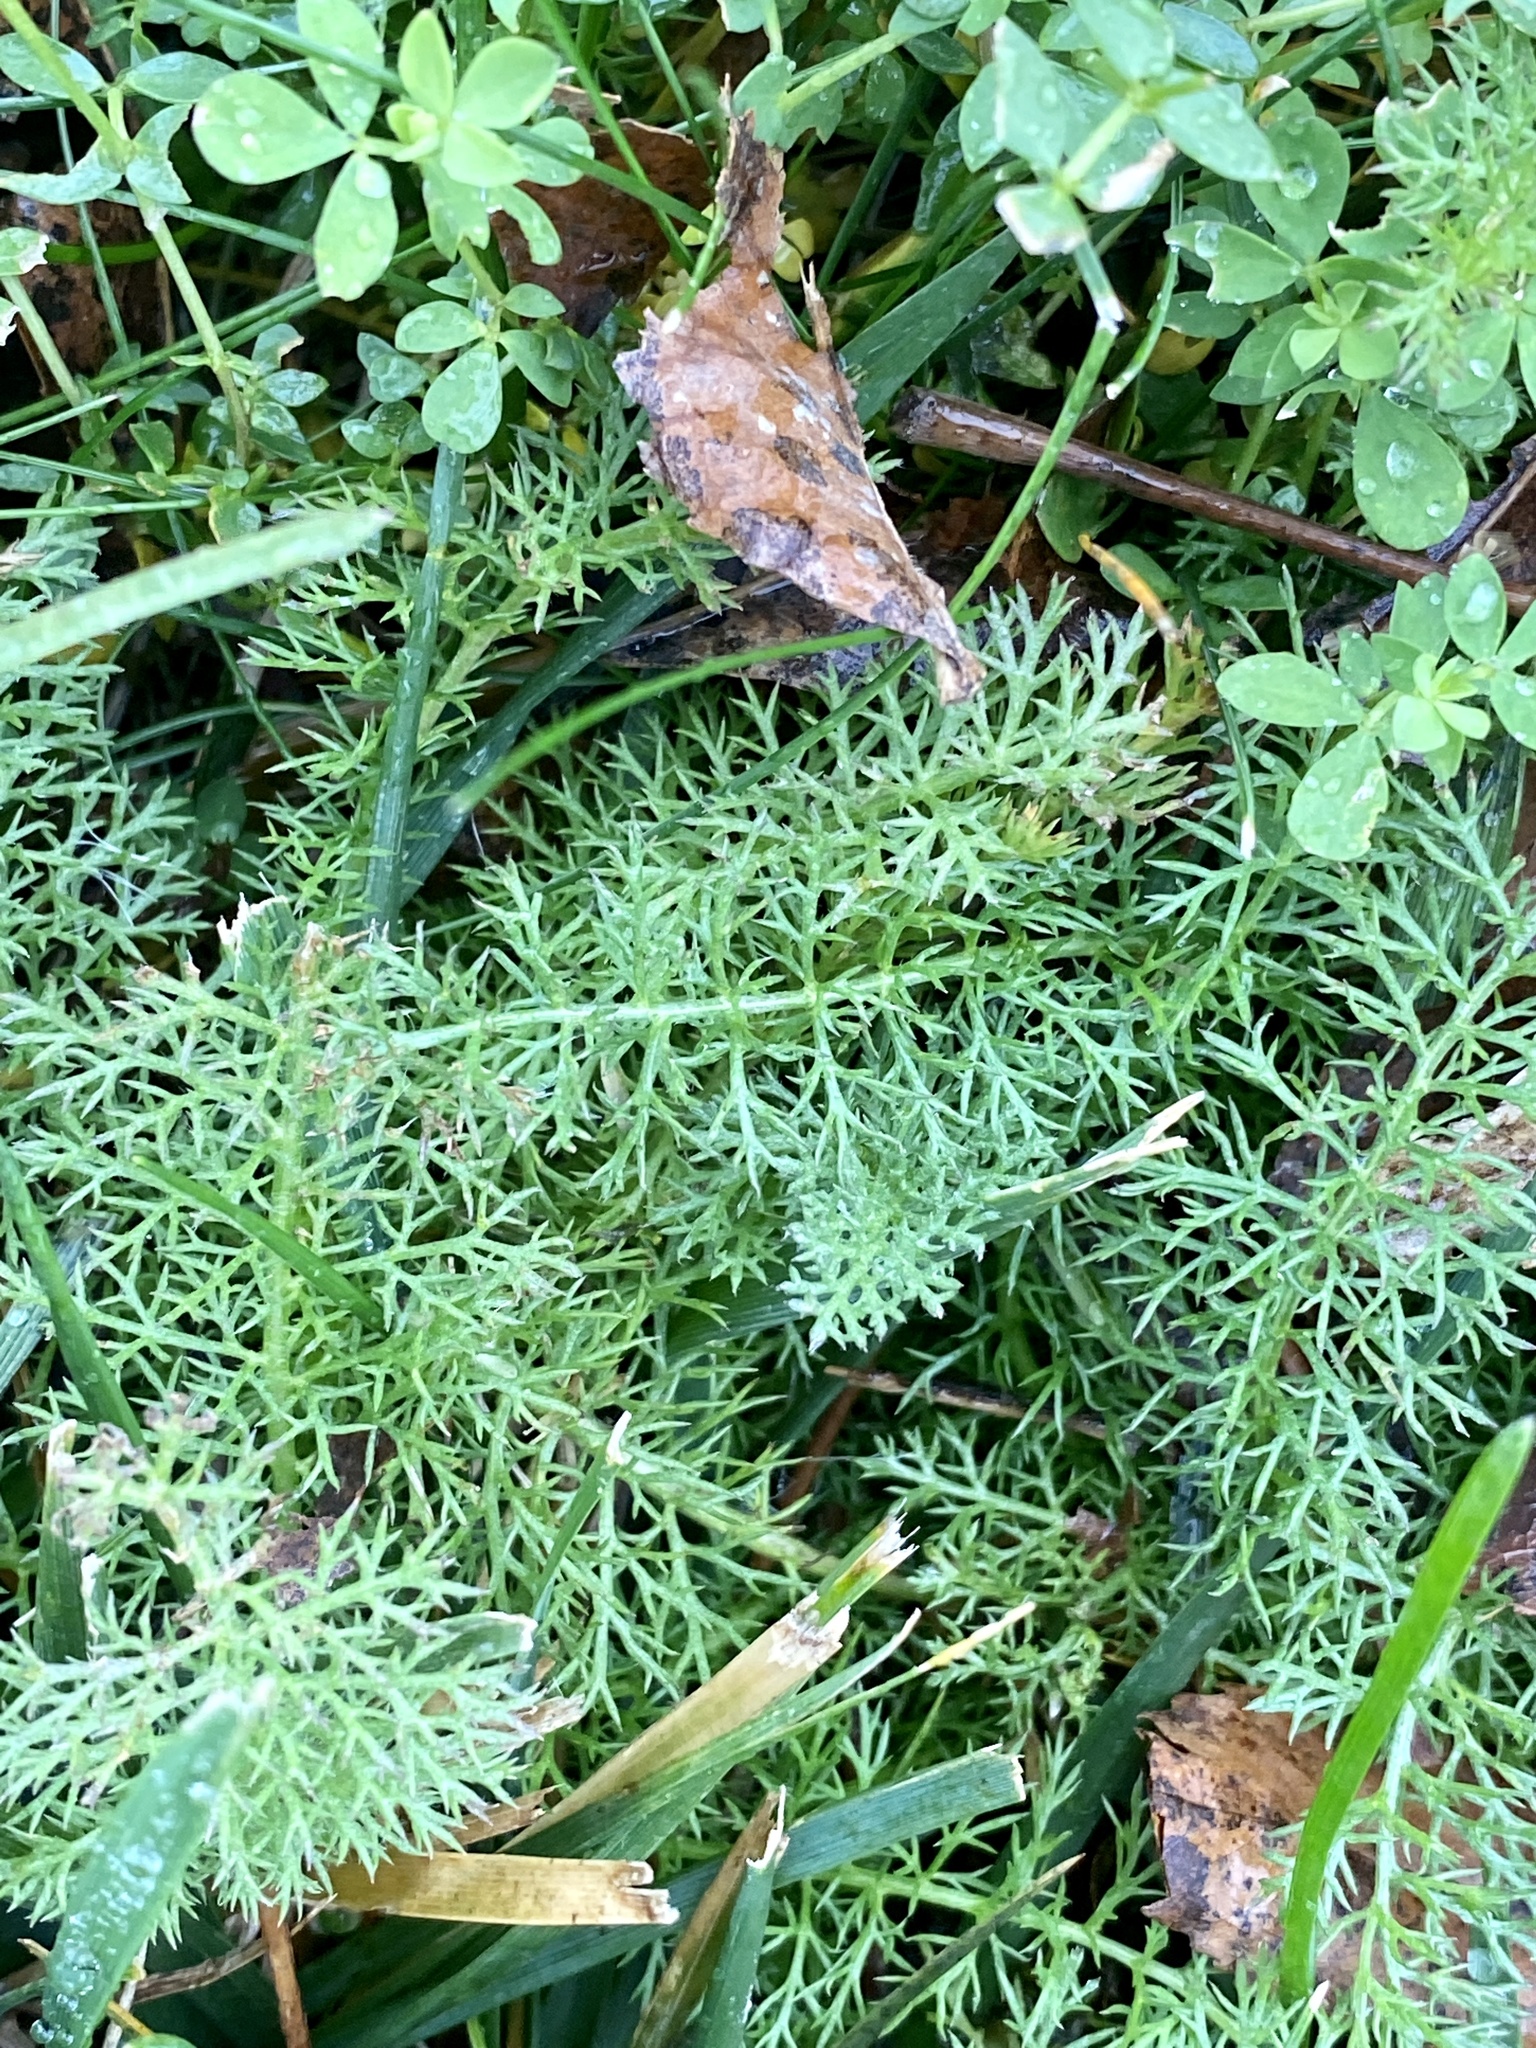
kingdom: Plantae
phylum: Tracheophyta
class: Magnoliopsida
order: Asterales
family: Asteraceae
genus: Achillea
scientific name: Achillea millefolium
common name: Yarrow
